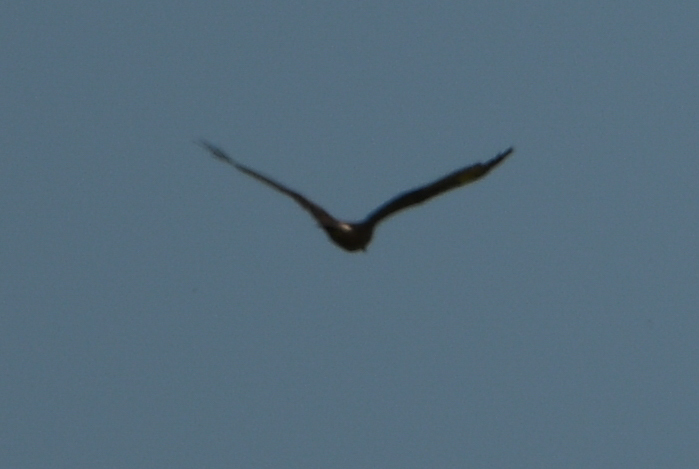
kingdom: Animalia
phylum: Chordata
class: Aves
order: Accipitriformes
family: Accipitridae
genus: Circus
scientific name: Circus approximans
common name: Swamp harrier
